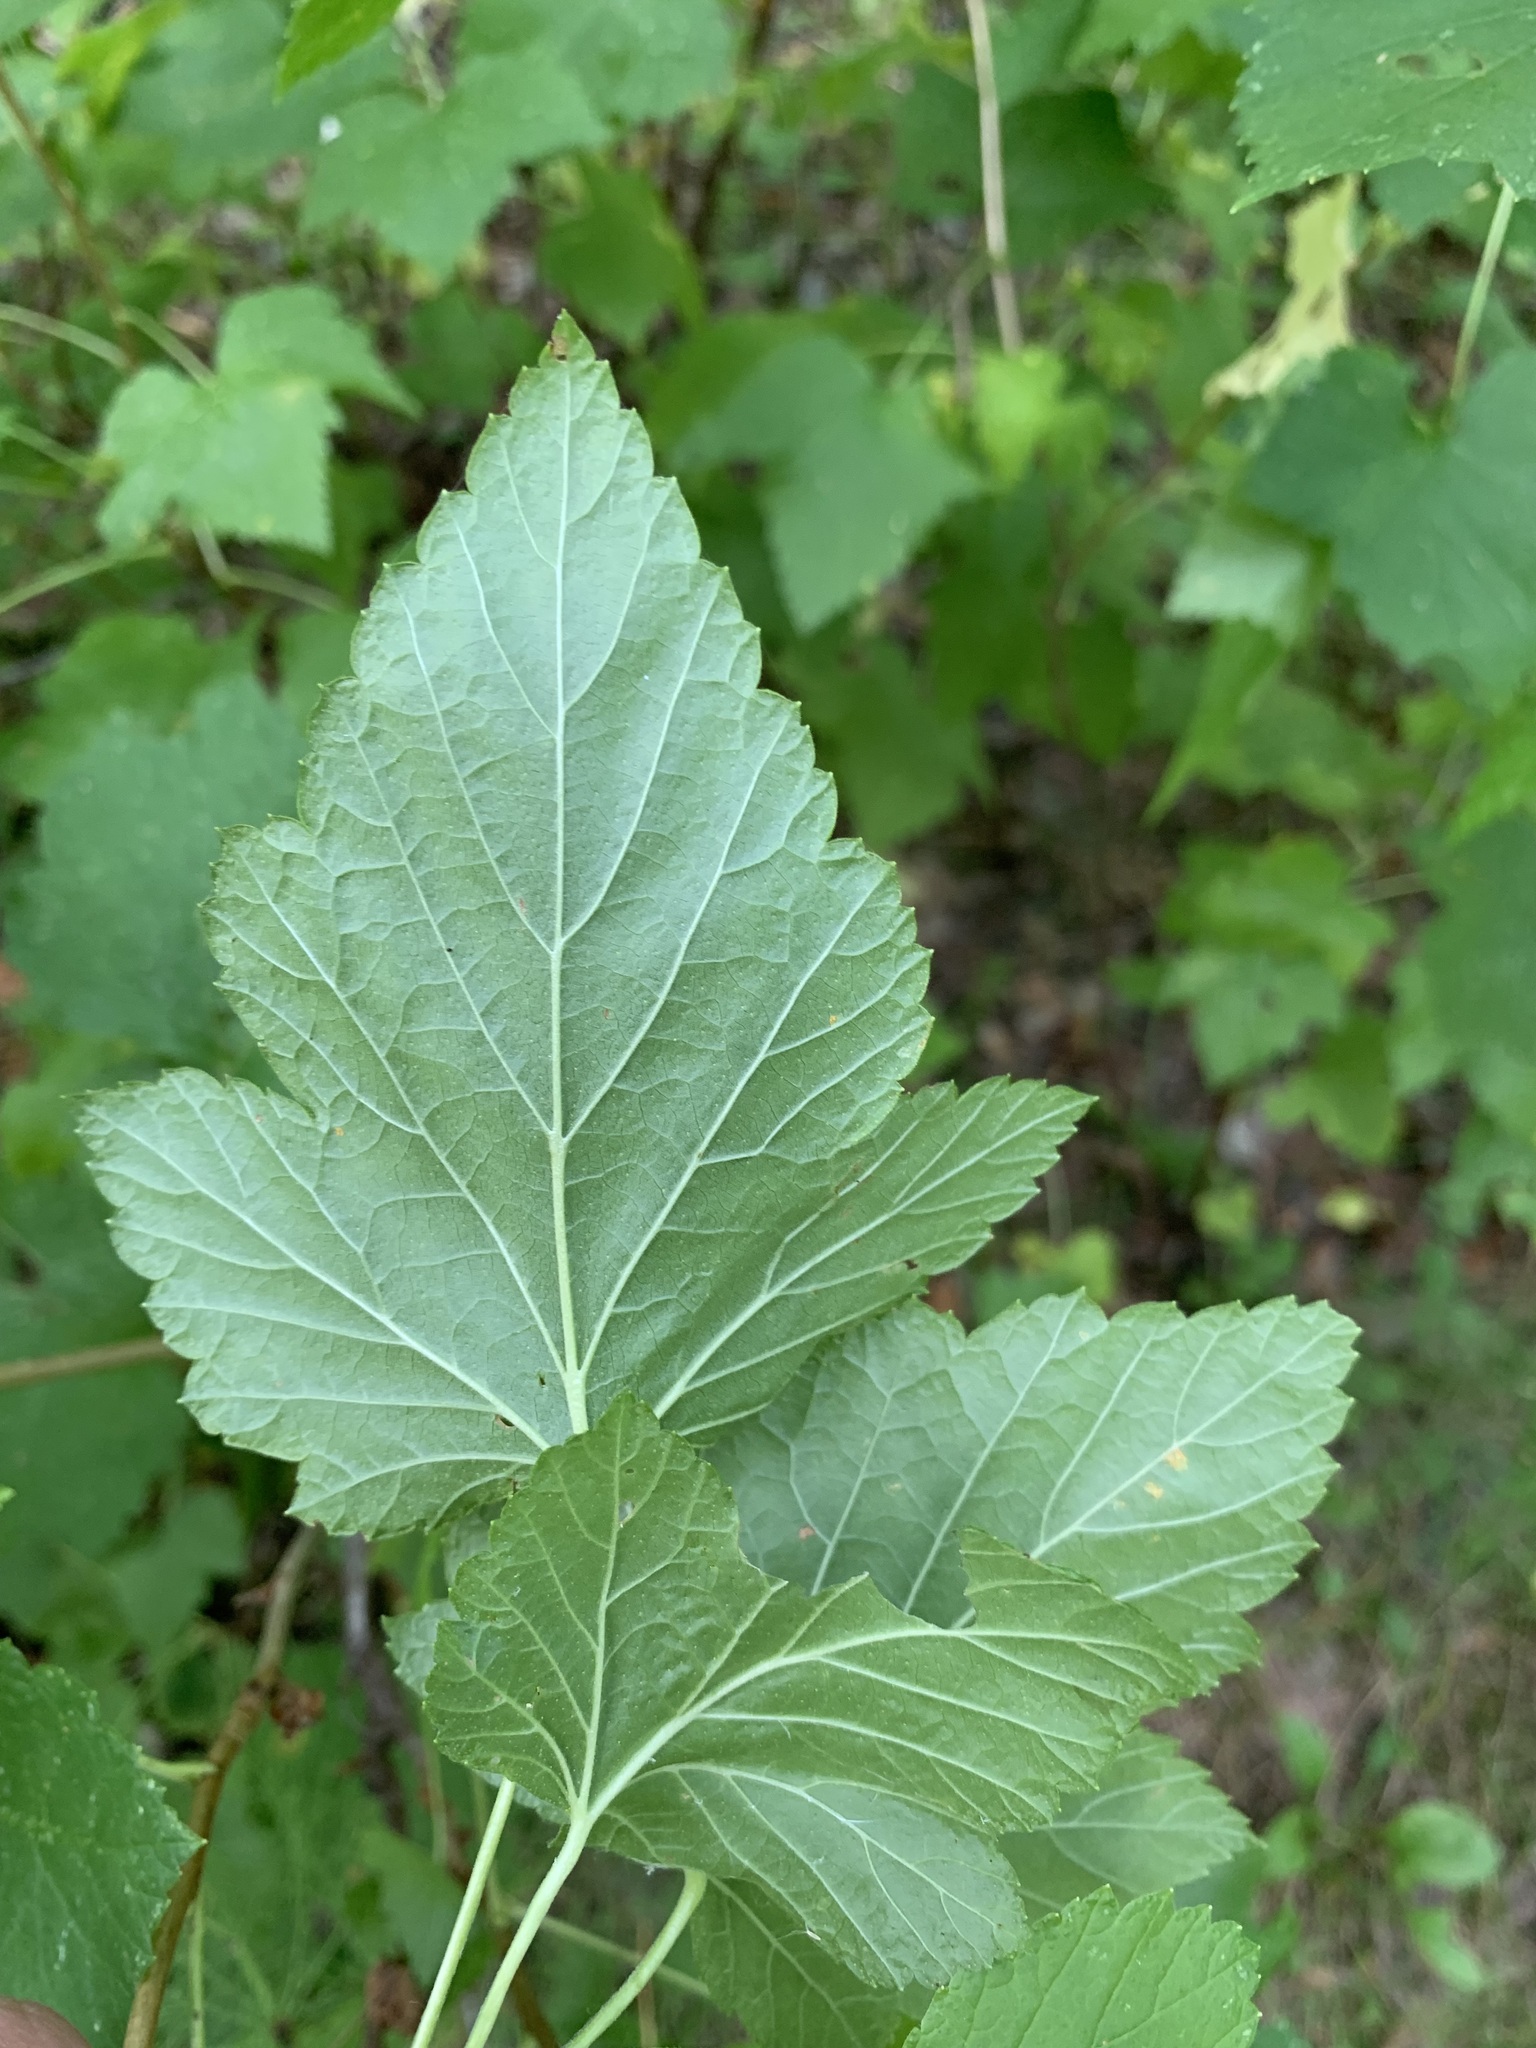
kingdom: Plantae
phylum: Tracheophyta
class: Magnoliopsida
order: Saxifragales
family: Grossulariaceae
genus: Ribes
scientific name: Ribes nigrum
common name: Black currant
